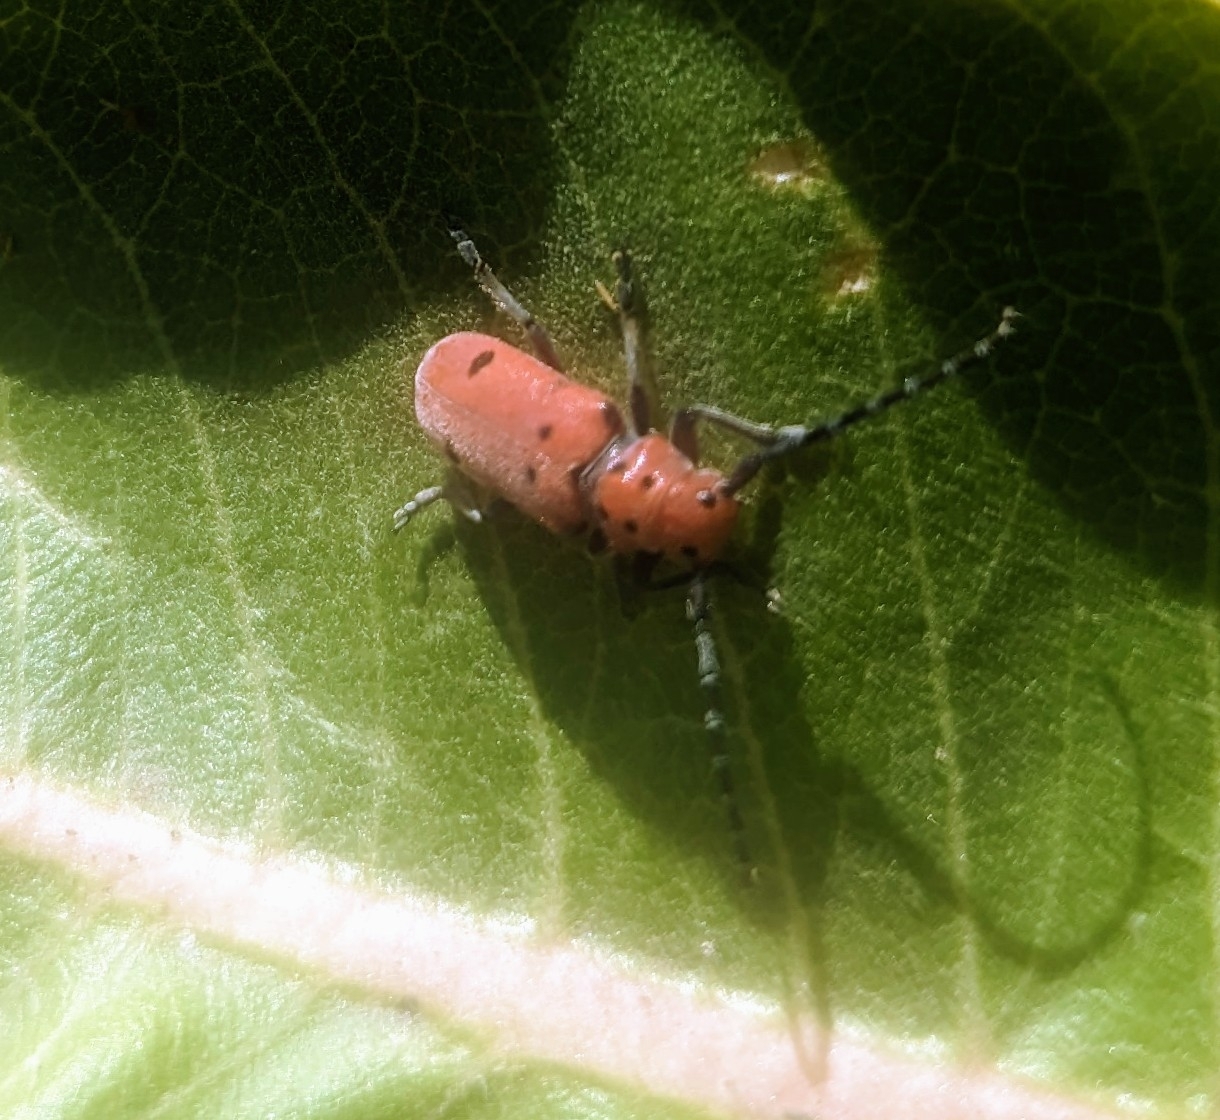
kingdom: Animalia
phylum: Arthropoda
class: Insecta
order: Coleoptera
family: Cerambycidae
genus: Tetraopes
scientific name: Tetraopes femoratus
